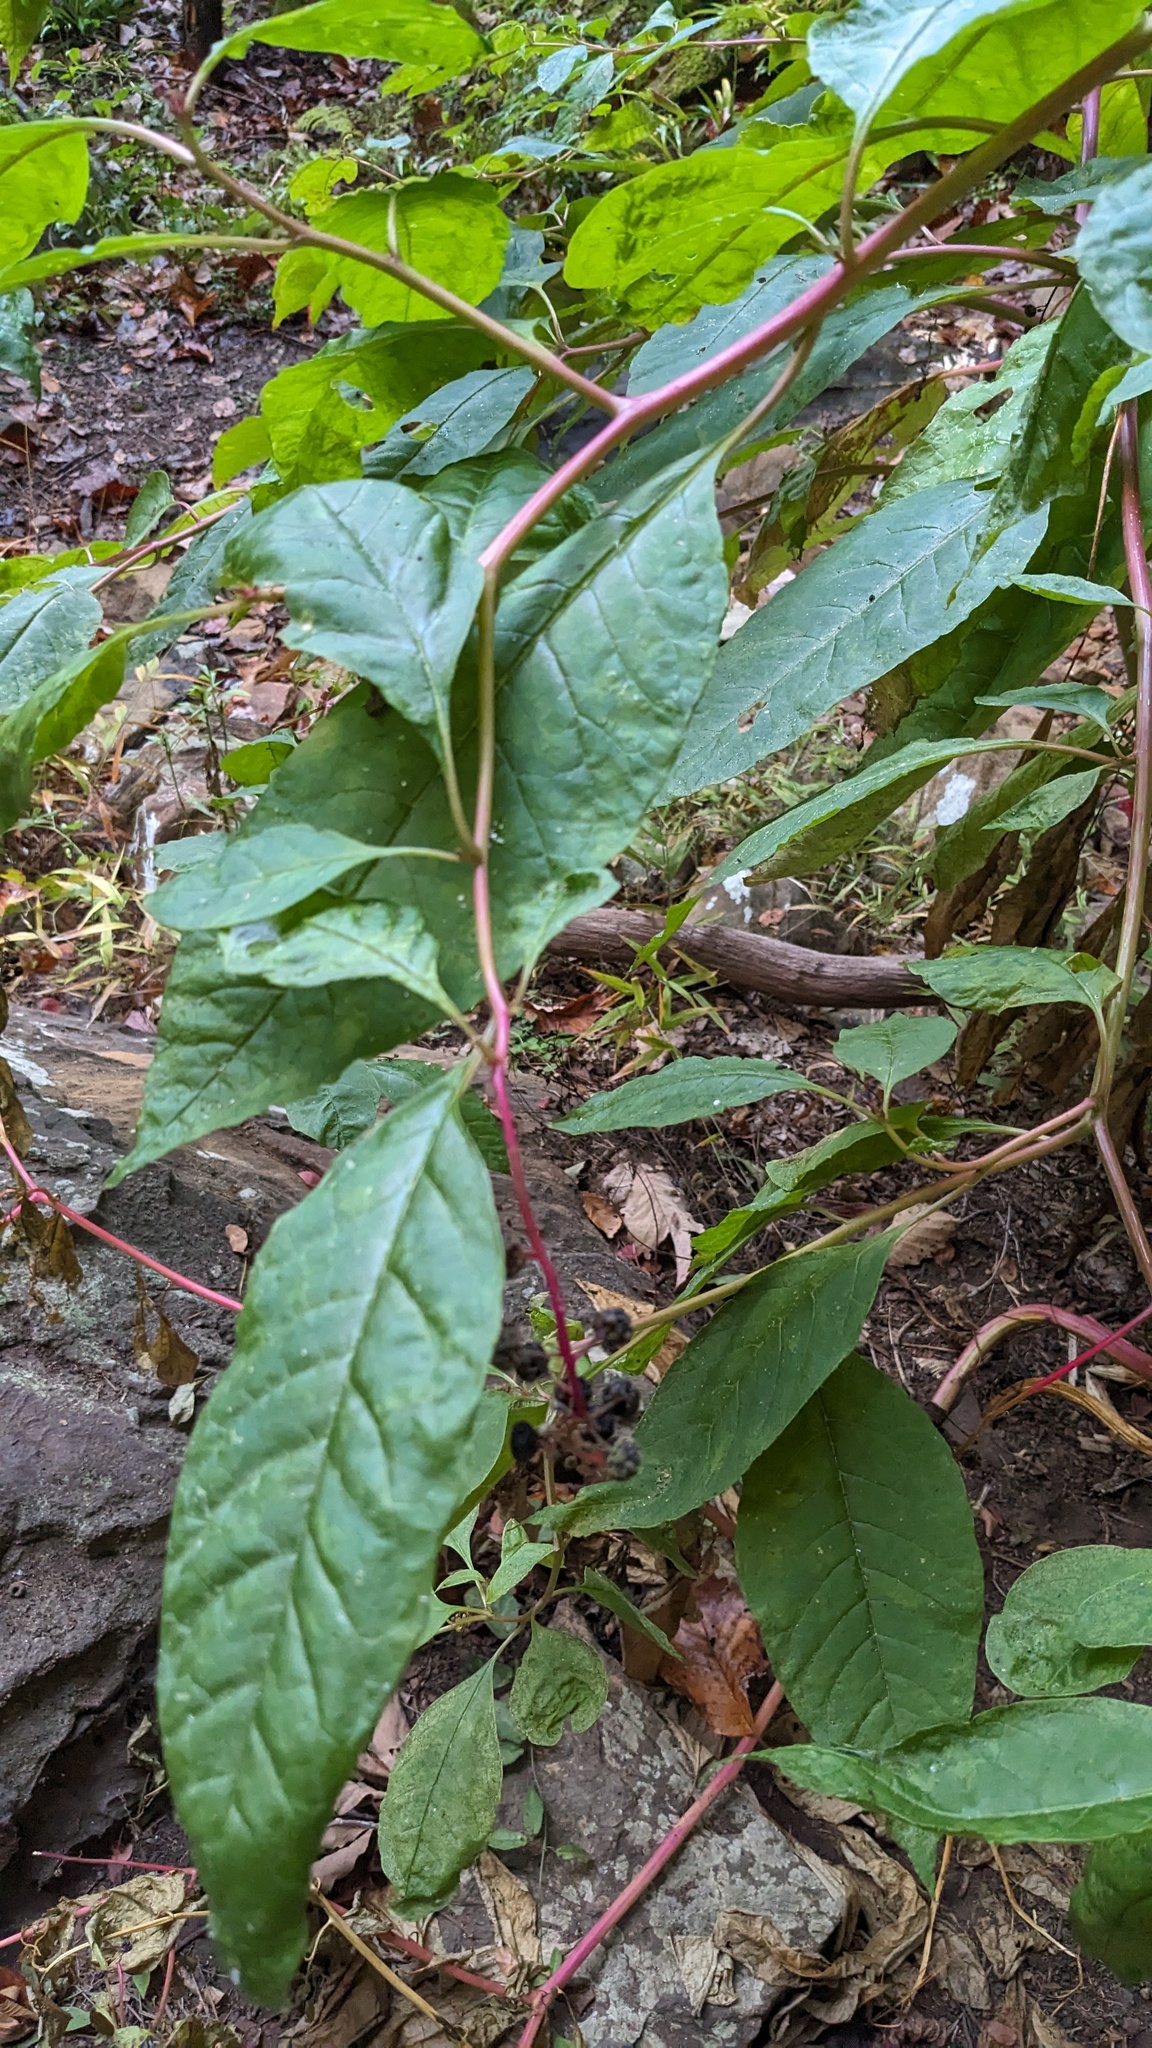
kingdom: Plantae
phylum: Tracheophyta
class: Magnoliopsida
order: Caryophyllales
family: Phytolaccaceae
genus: Phytolacca
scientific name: Phytolacca americana
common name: American pokeweed
